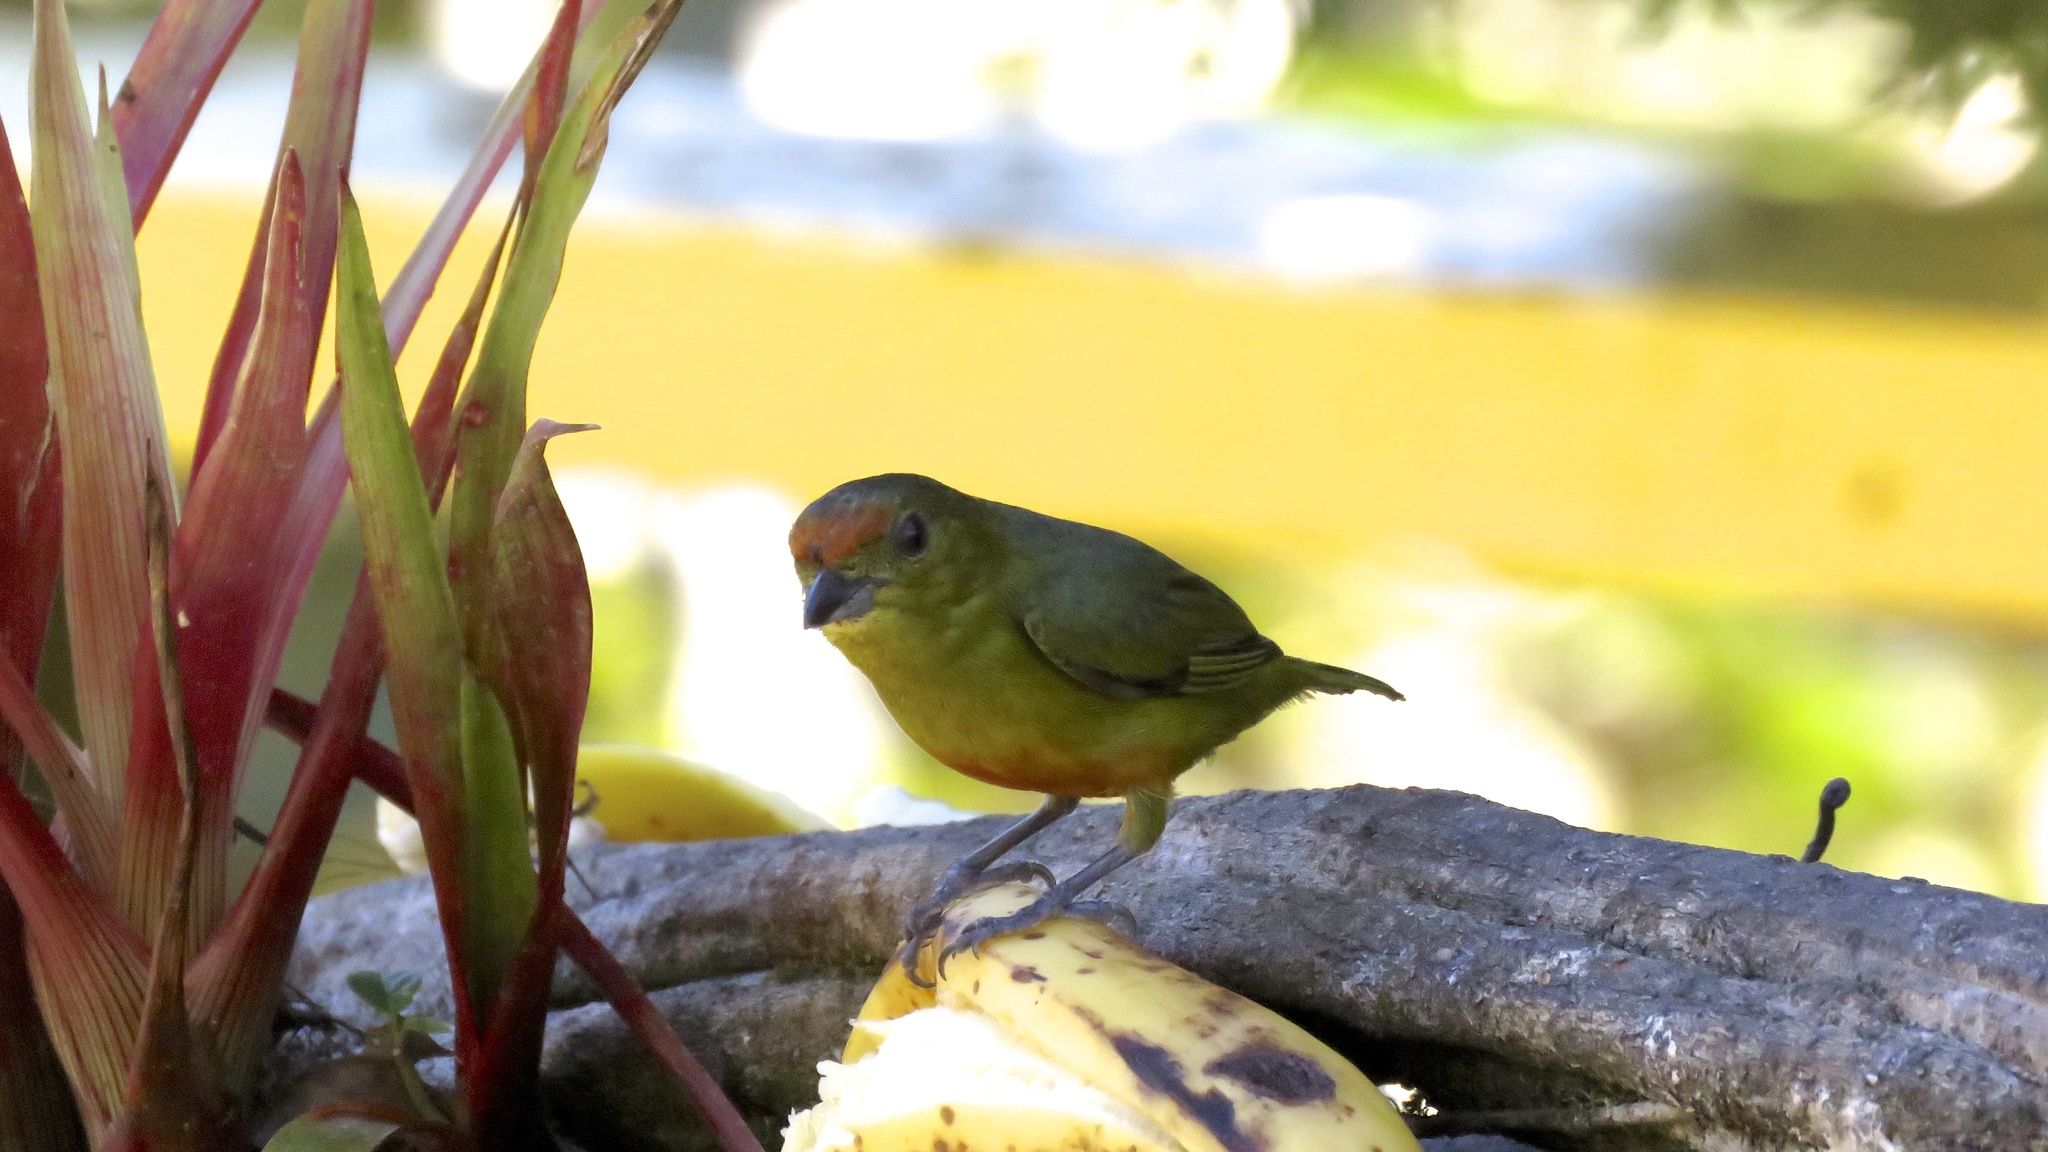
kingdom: Animalia
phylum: Chordata
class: Aves
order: Passeriformes
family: Fringillidae
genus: Euphonia
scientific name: Euphonia imitans
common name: Spot-crowned euphonia
